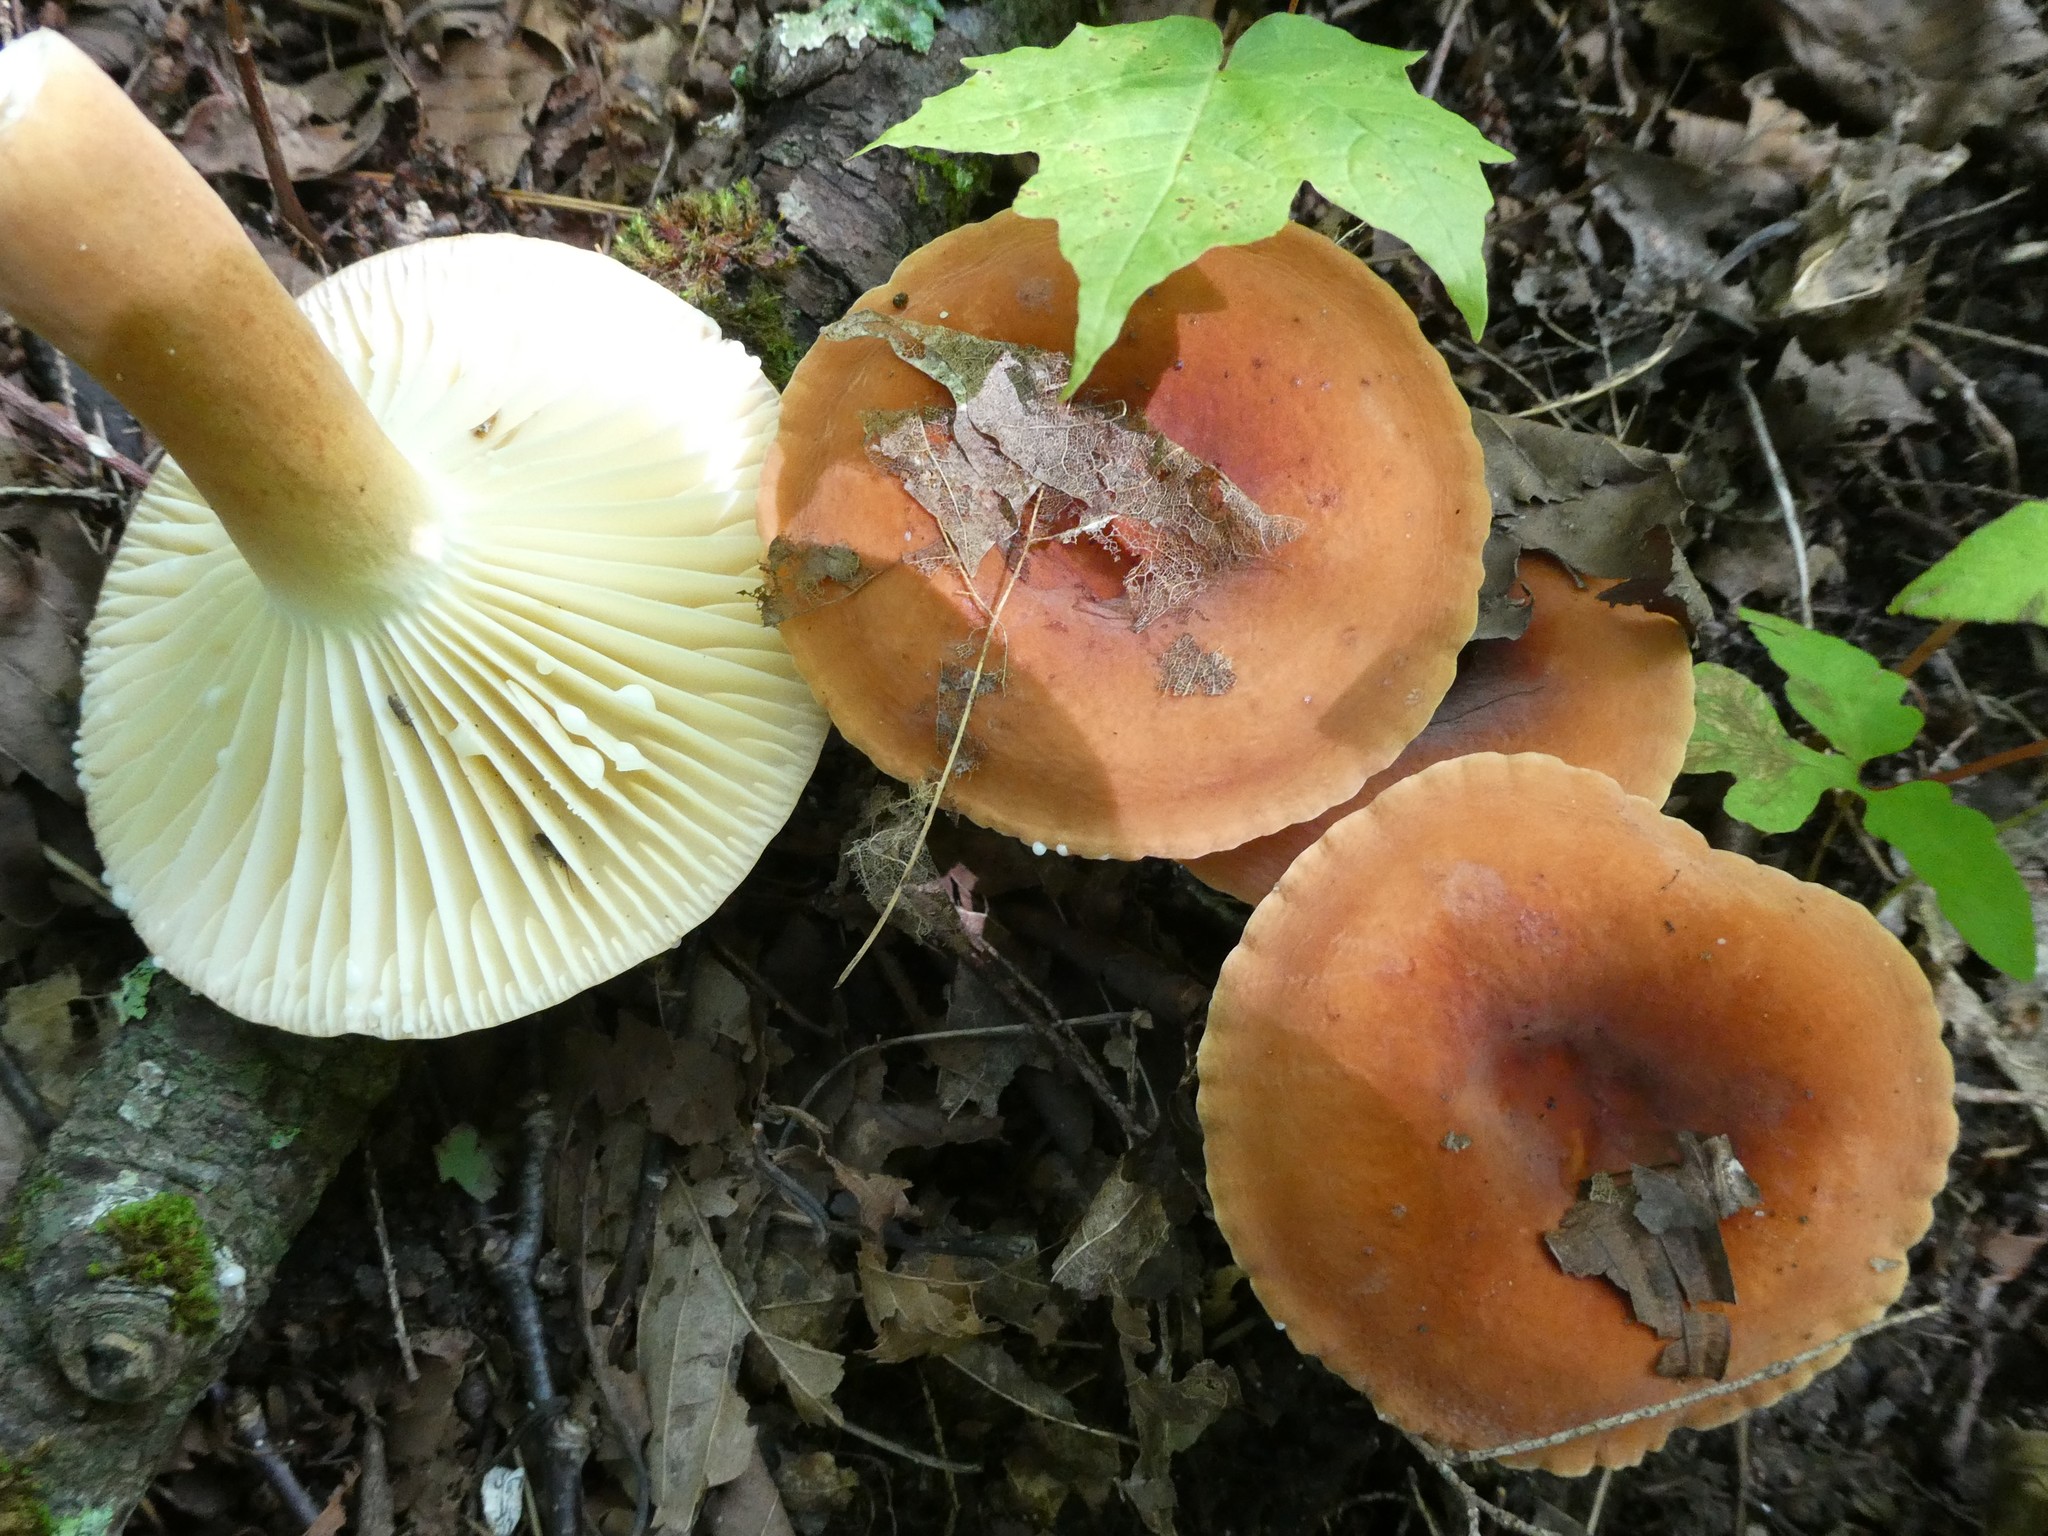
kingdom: Fungi
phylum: Basidiomycota
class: Agaricomycetes
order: Russulales
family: Russulaceae
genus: Lactarius
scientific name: Lactarius hygrophoroides
